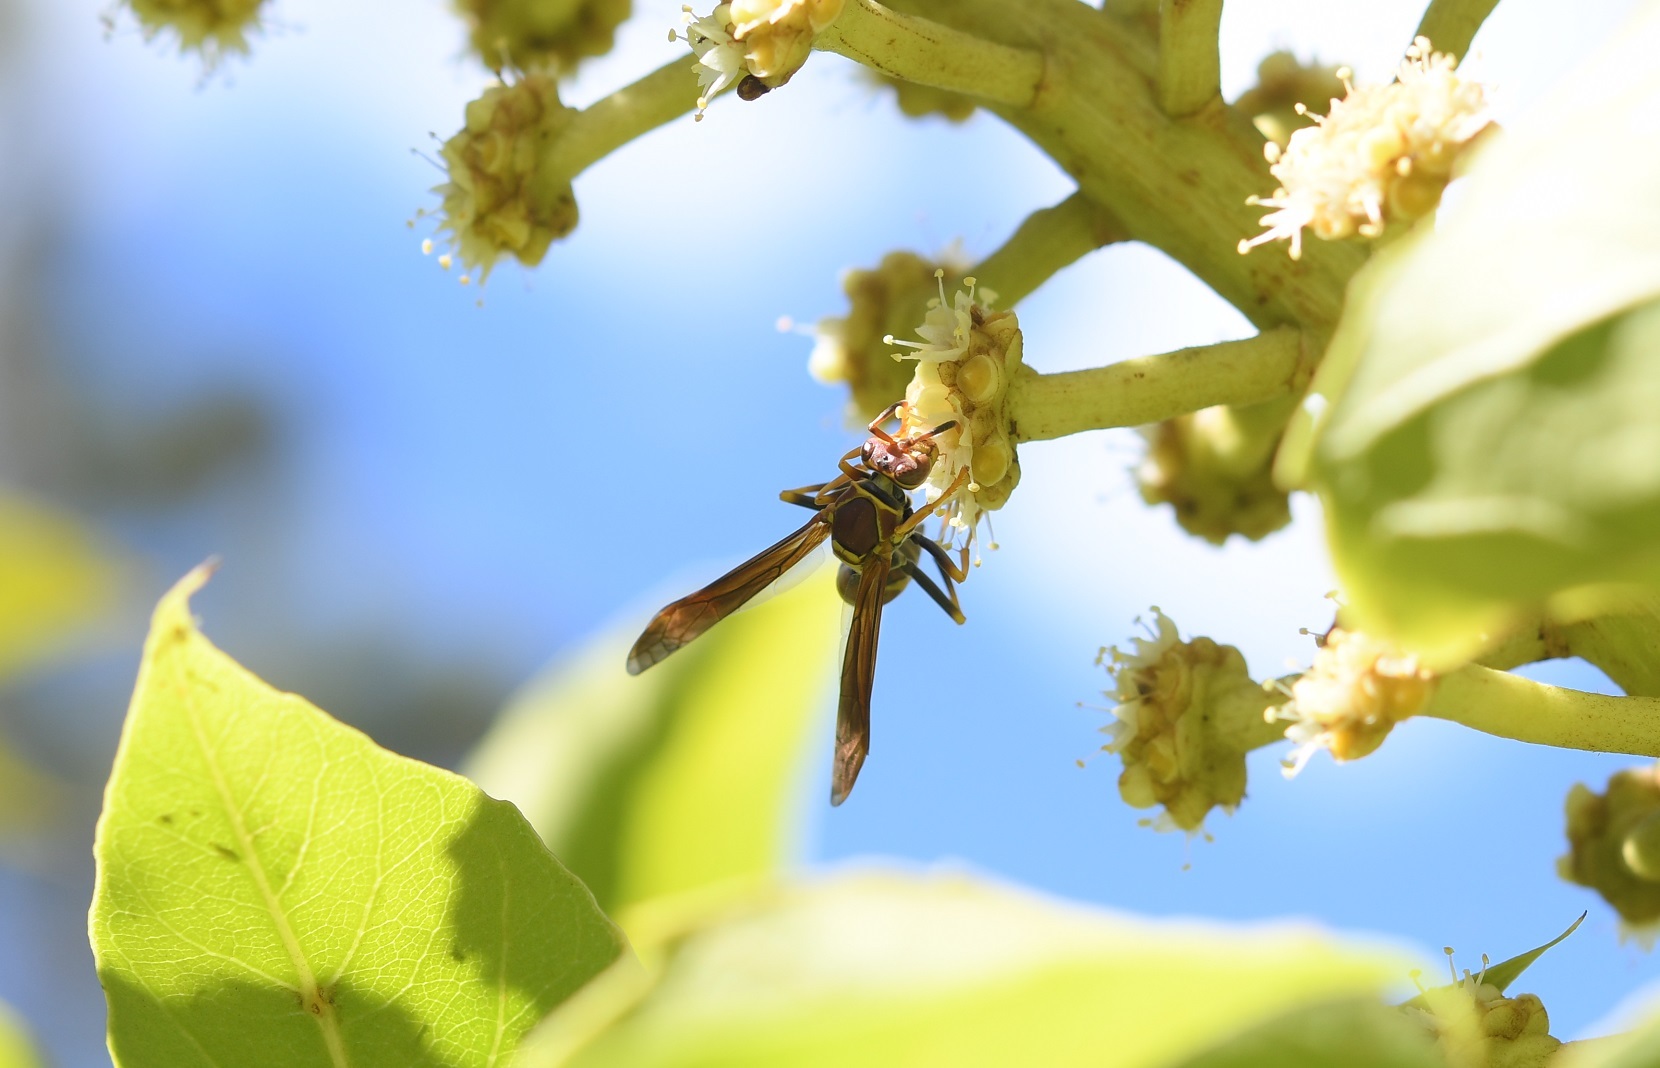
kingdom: Animalia
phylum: Arthropoda
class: Insecta
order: Hymenoptera
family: Eumenidae
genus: Polistes
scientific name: Polistes instabilis
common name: Unstable paper wasp
